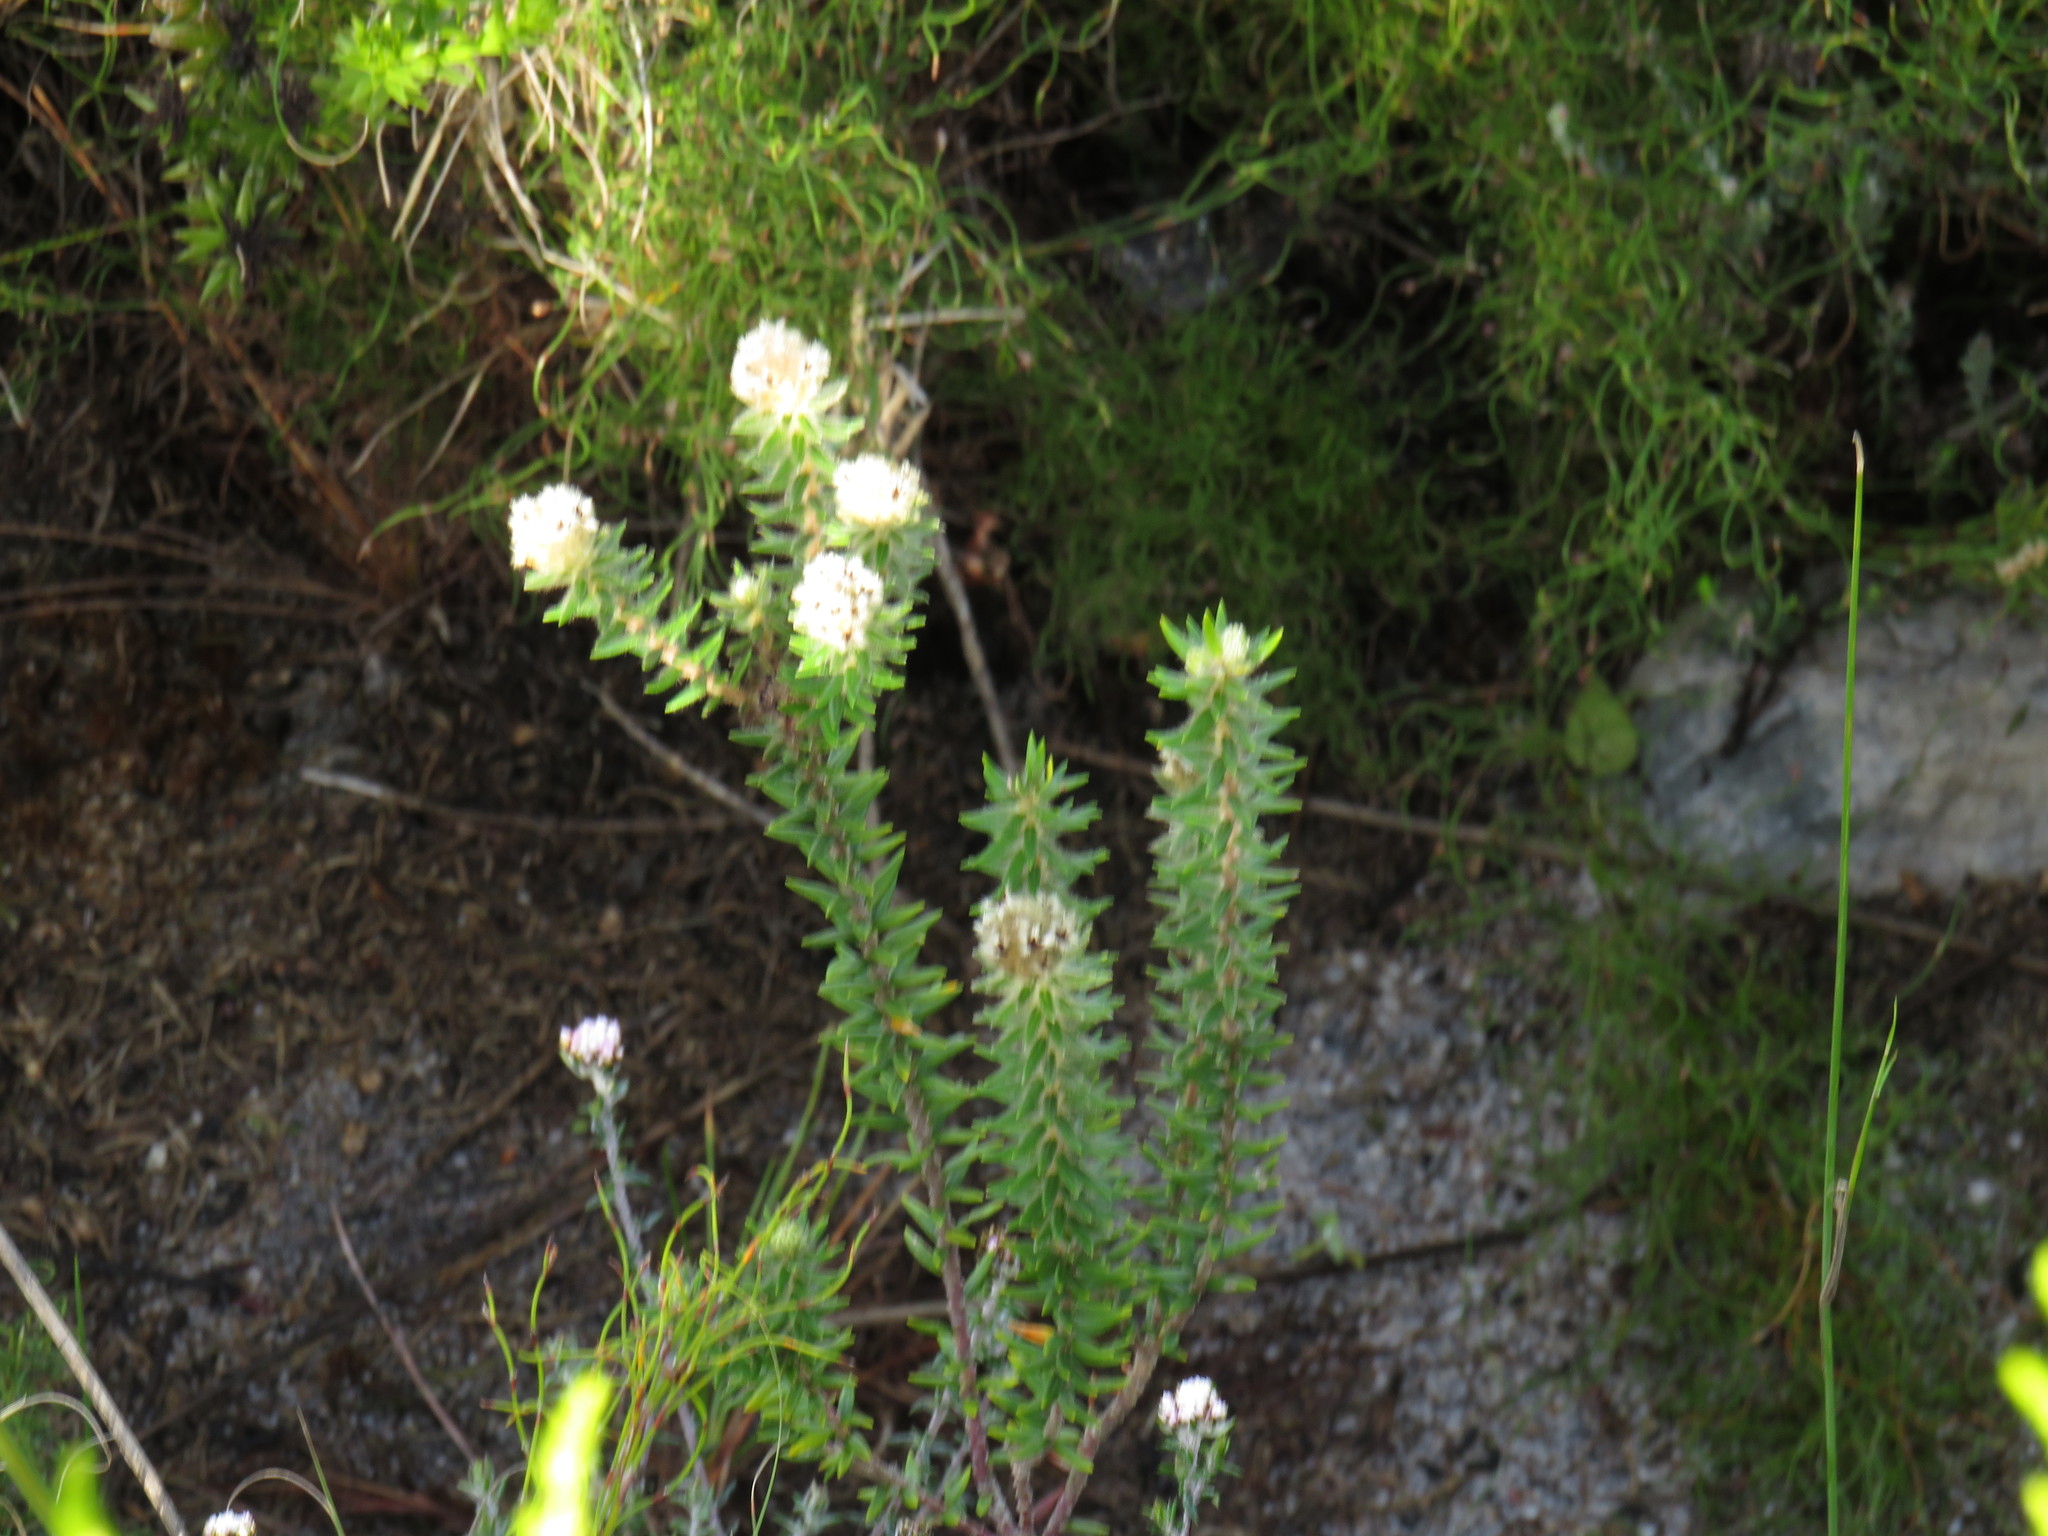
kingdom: Plantae
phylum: Tracheophyta
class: Magnoliopsida
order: Rosales
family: Rhamnaceae
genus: Phylica
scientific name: Phylica strigosa
